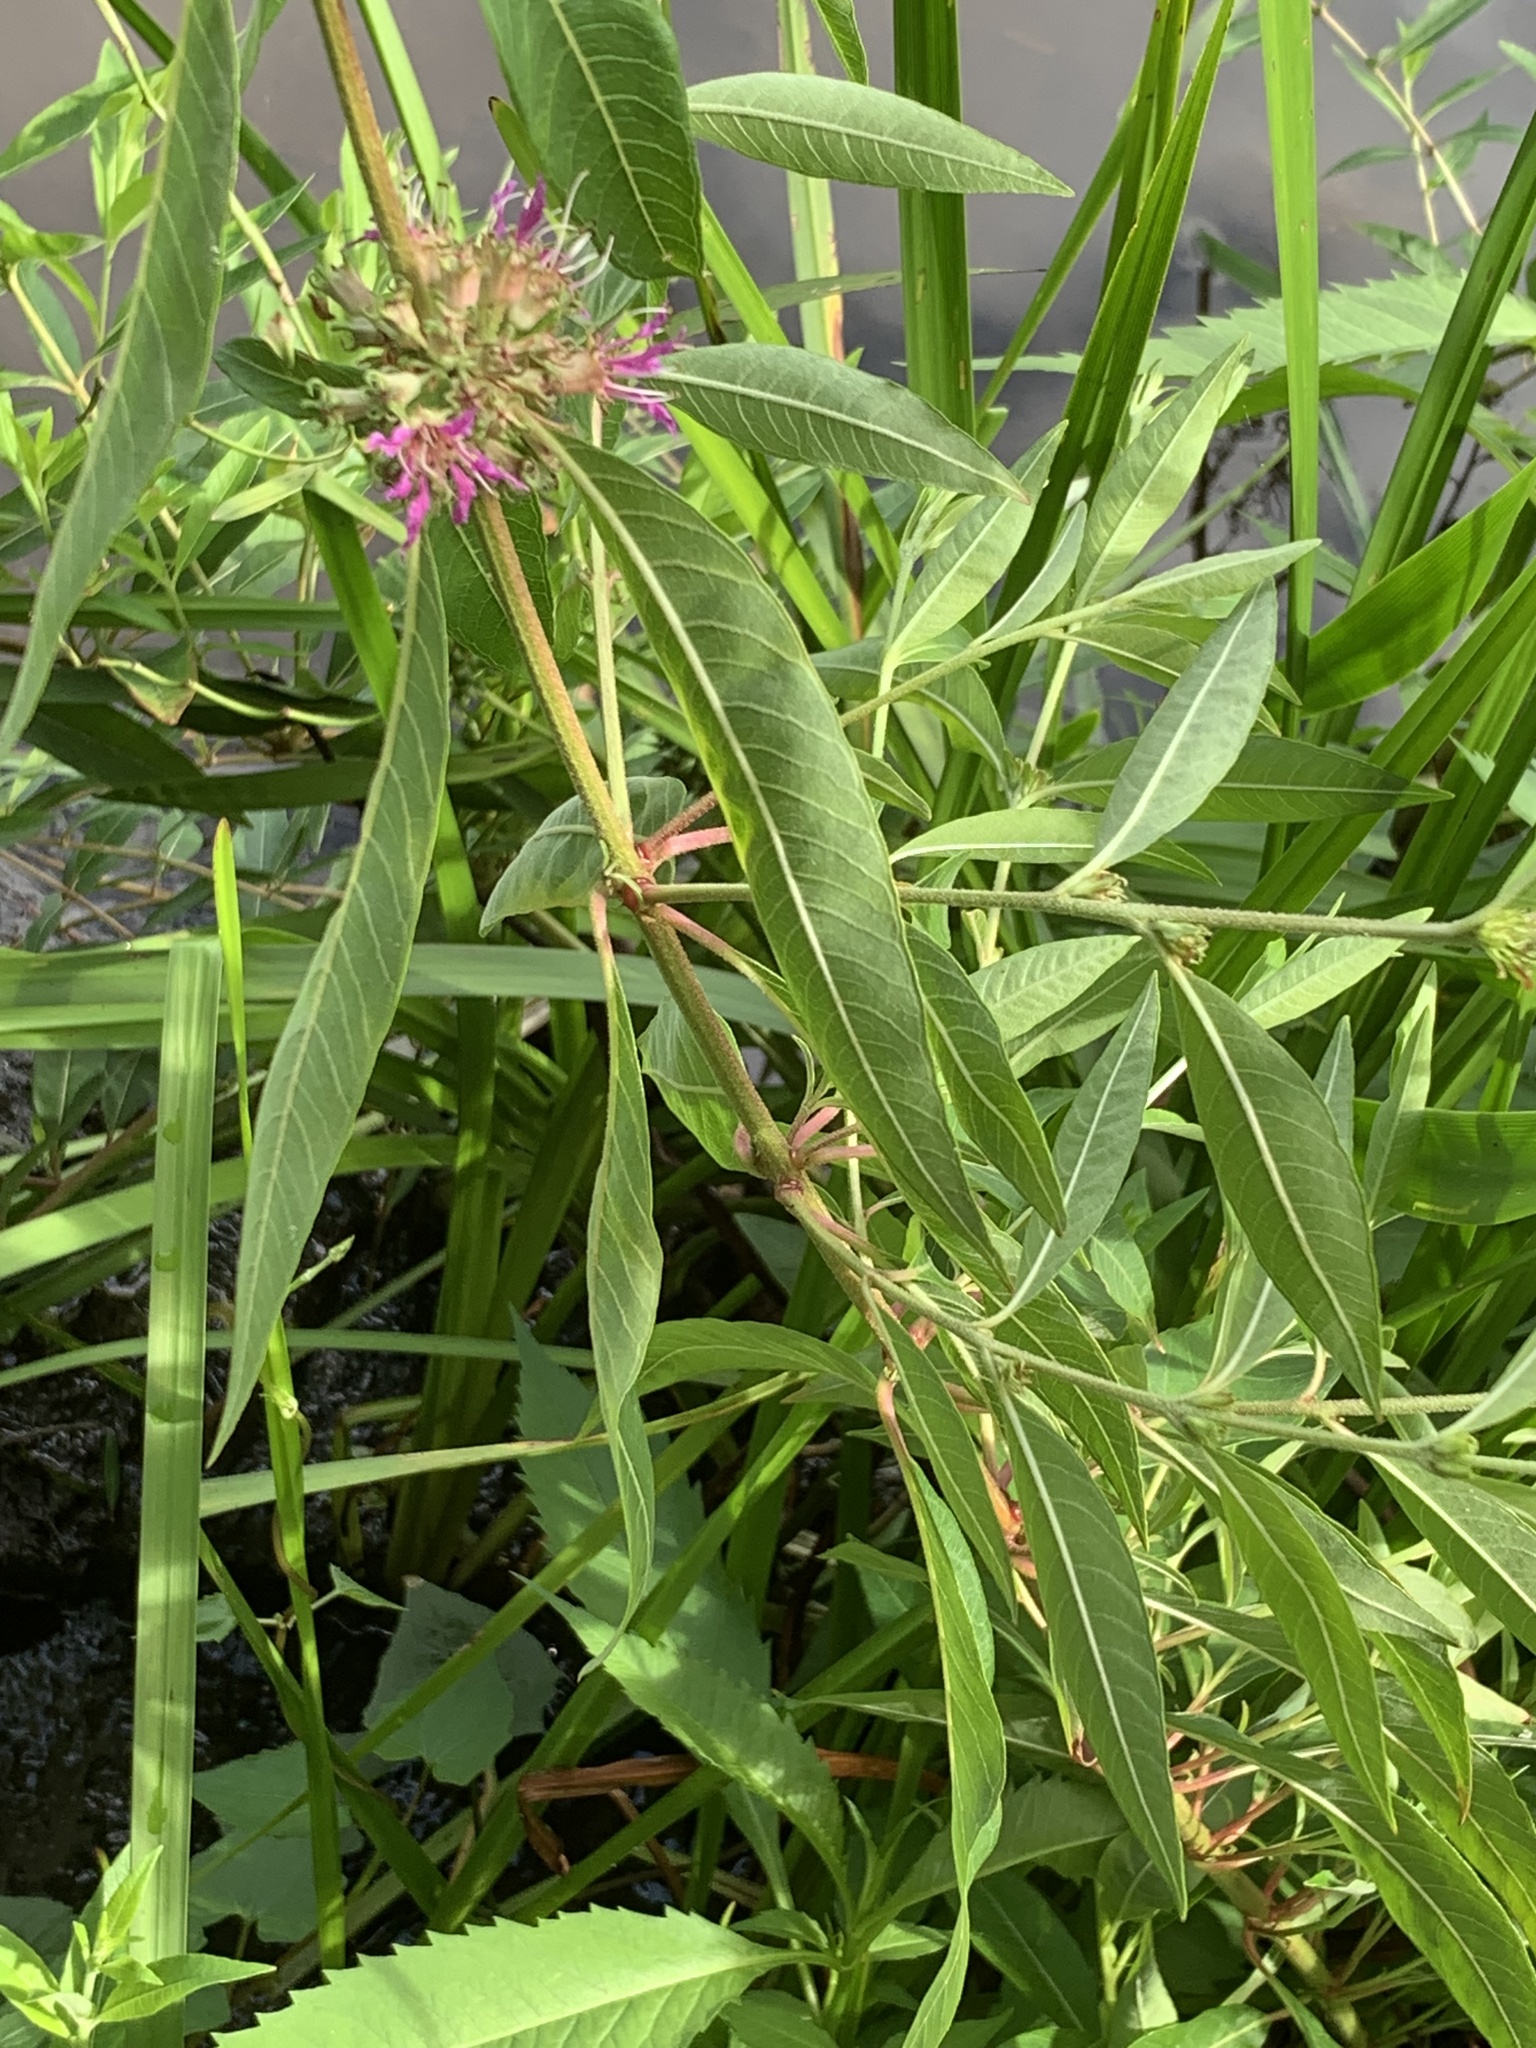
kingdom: Plantae
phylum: Tracheophyta
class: Magnoliopsida
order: Myrtales
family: Lythraceae
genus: Decodon
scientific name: Decodon verticillatus
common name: Hairy swamp loosestrife
